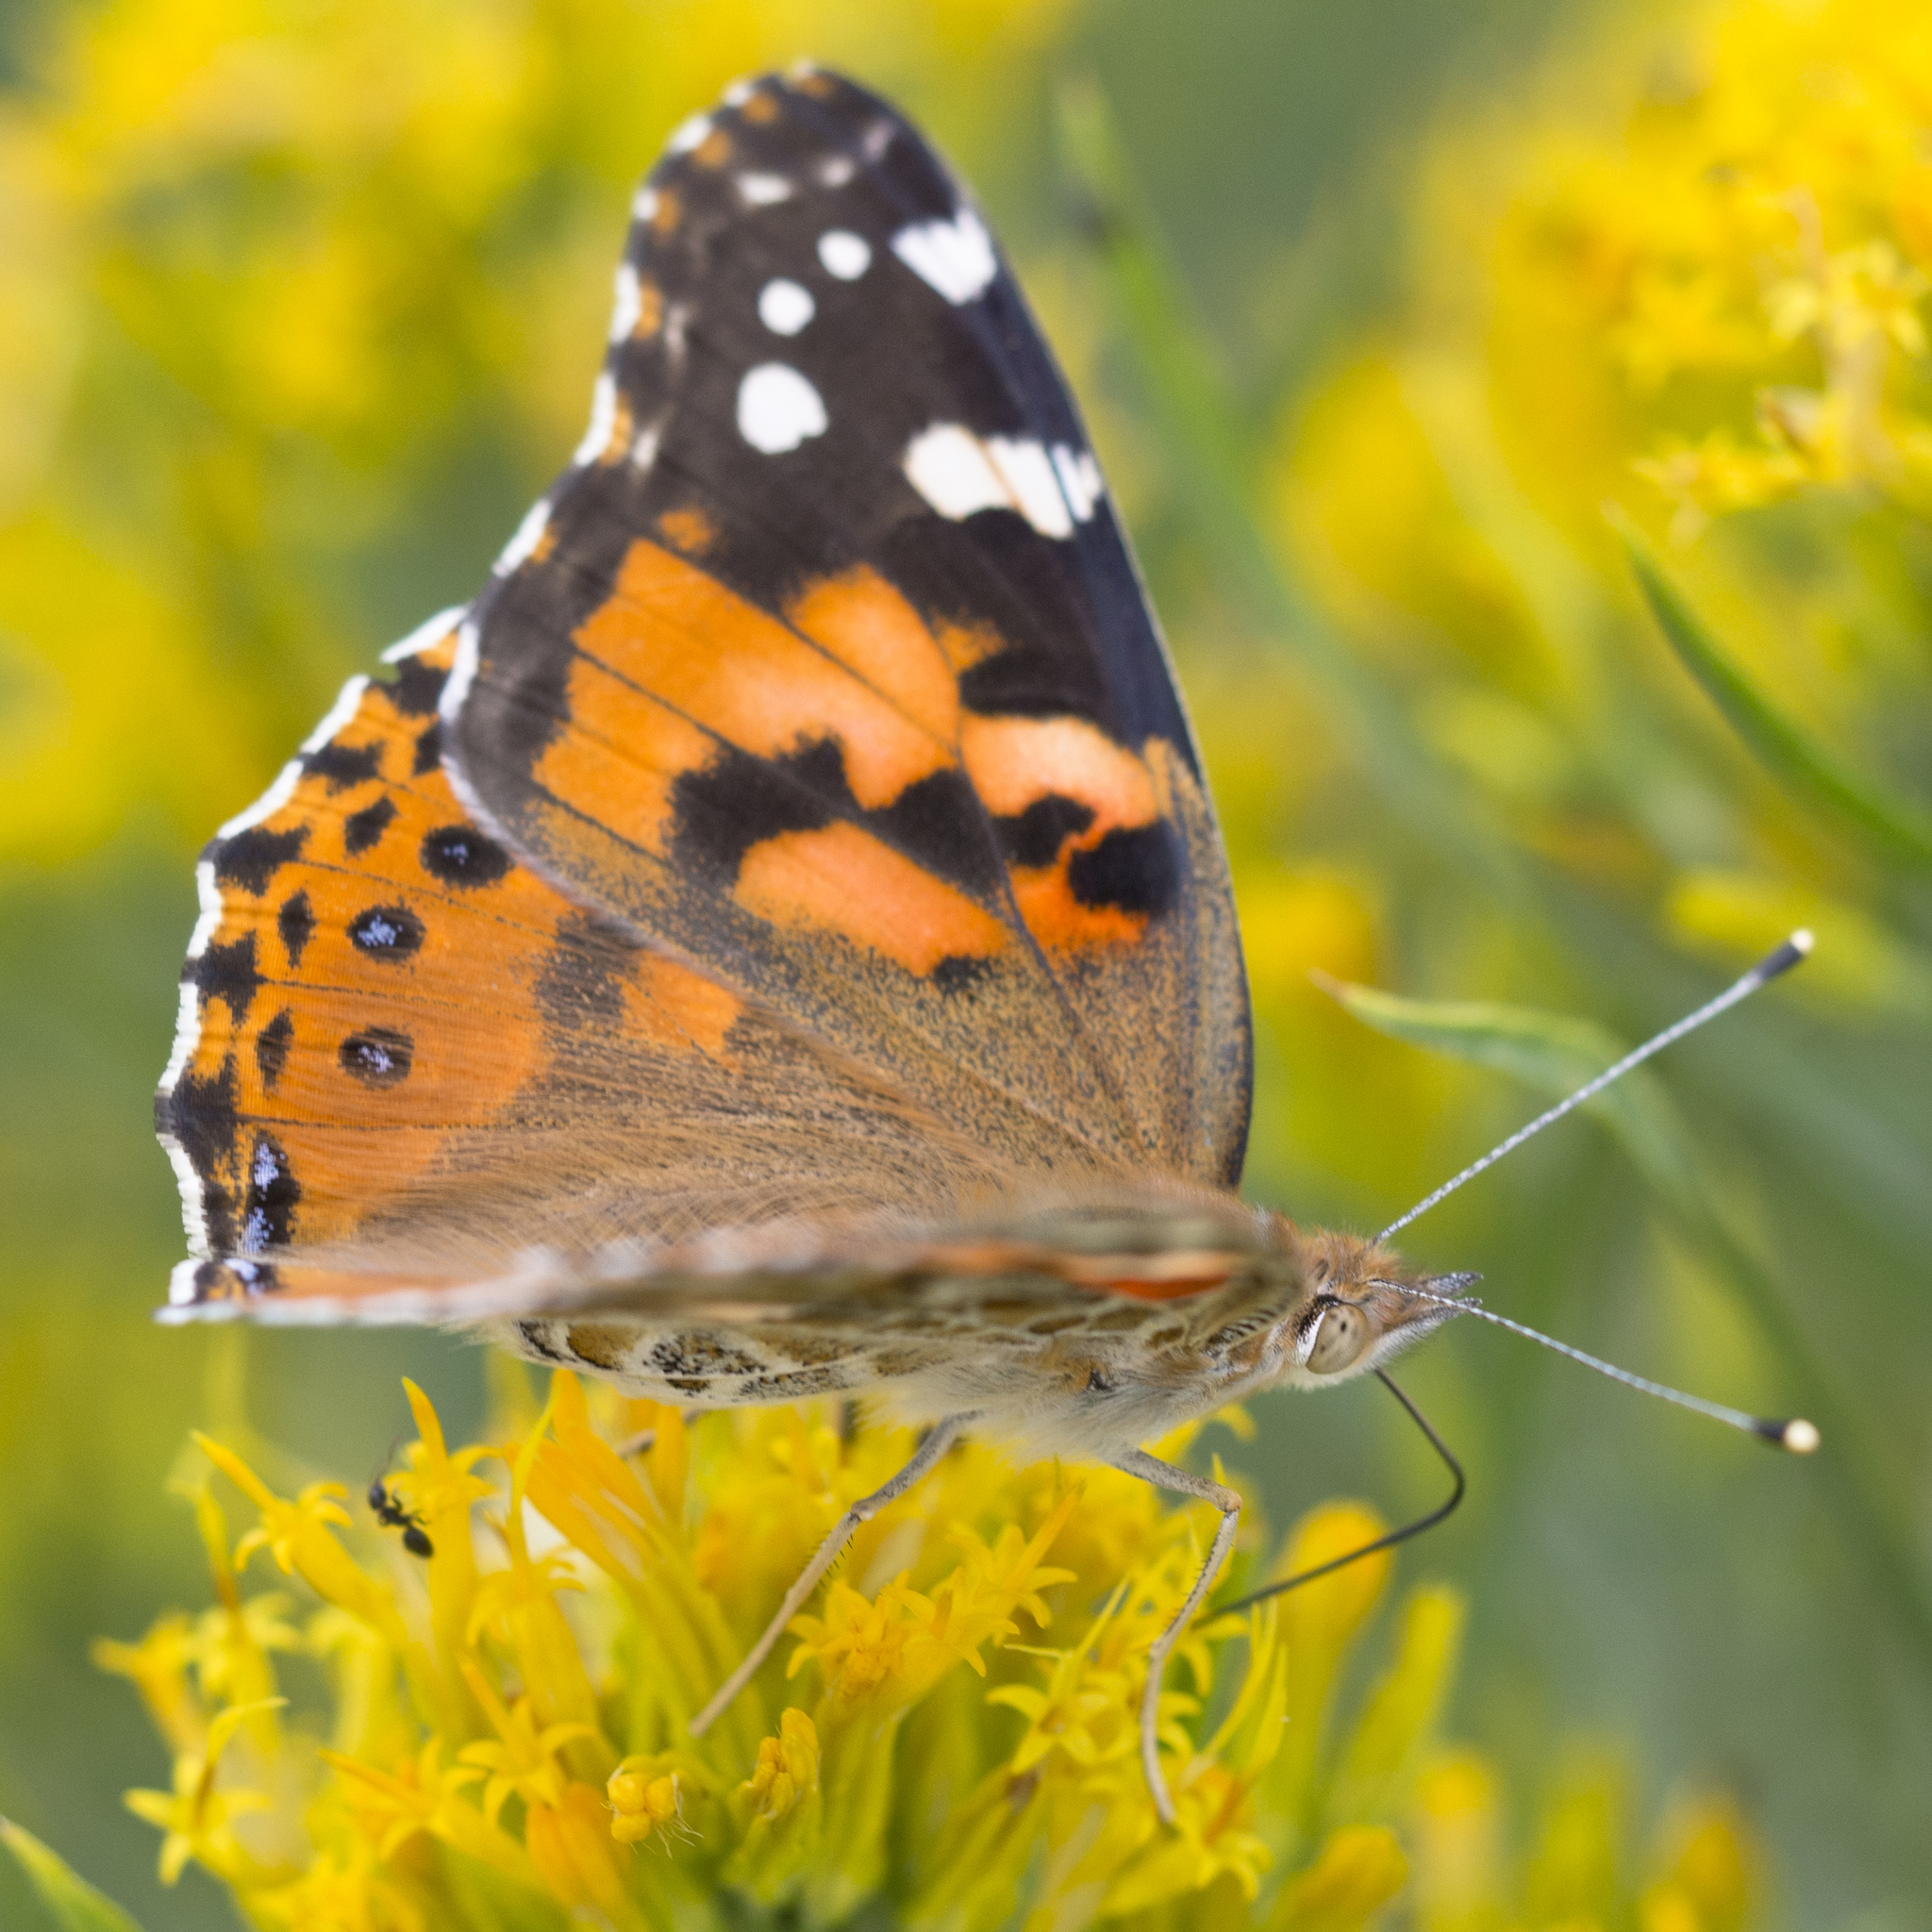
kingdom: Animalia
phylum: Arthropoda
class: Insecta
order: Lepidoptera
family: Nymphalidae
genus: Vanessa
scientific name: Vanessa cardui
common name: Painted lady
